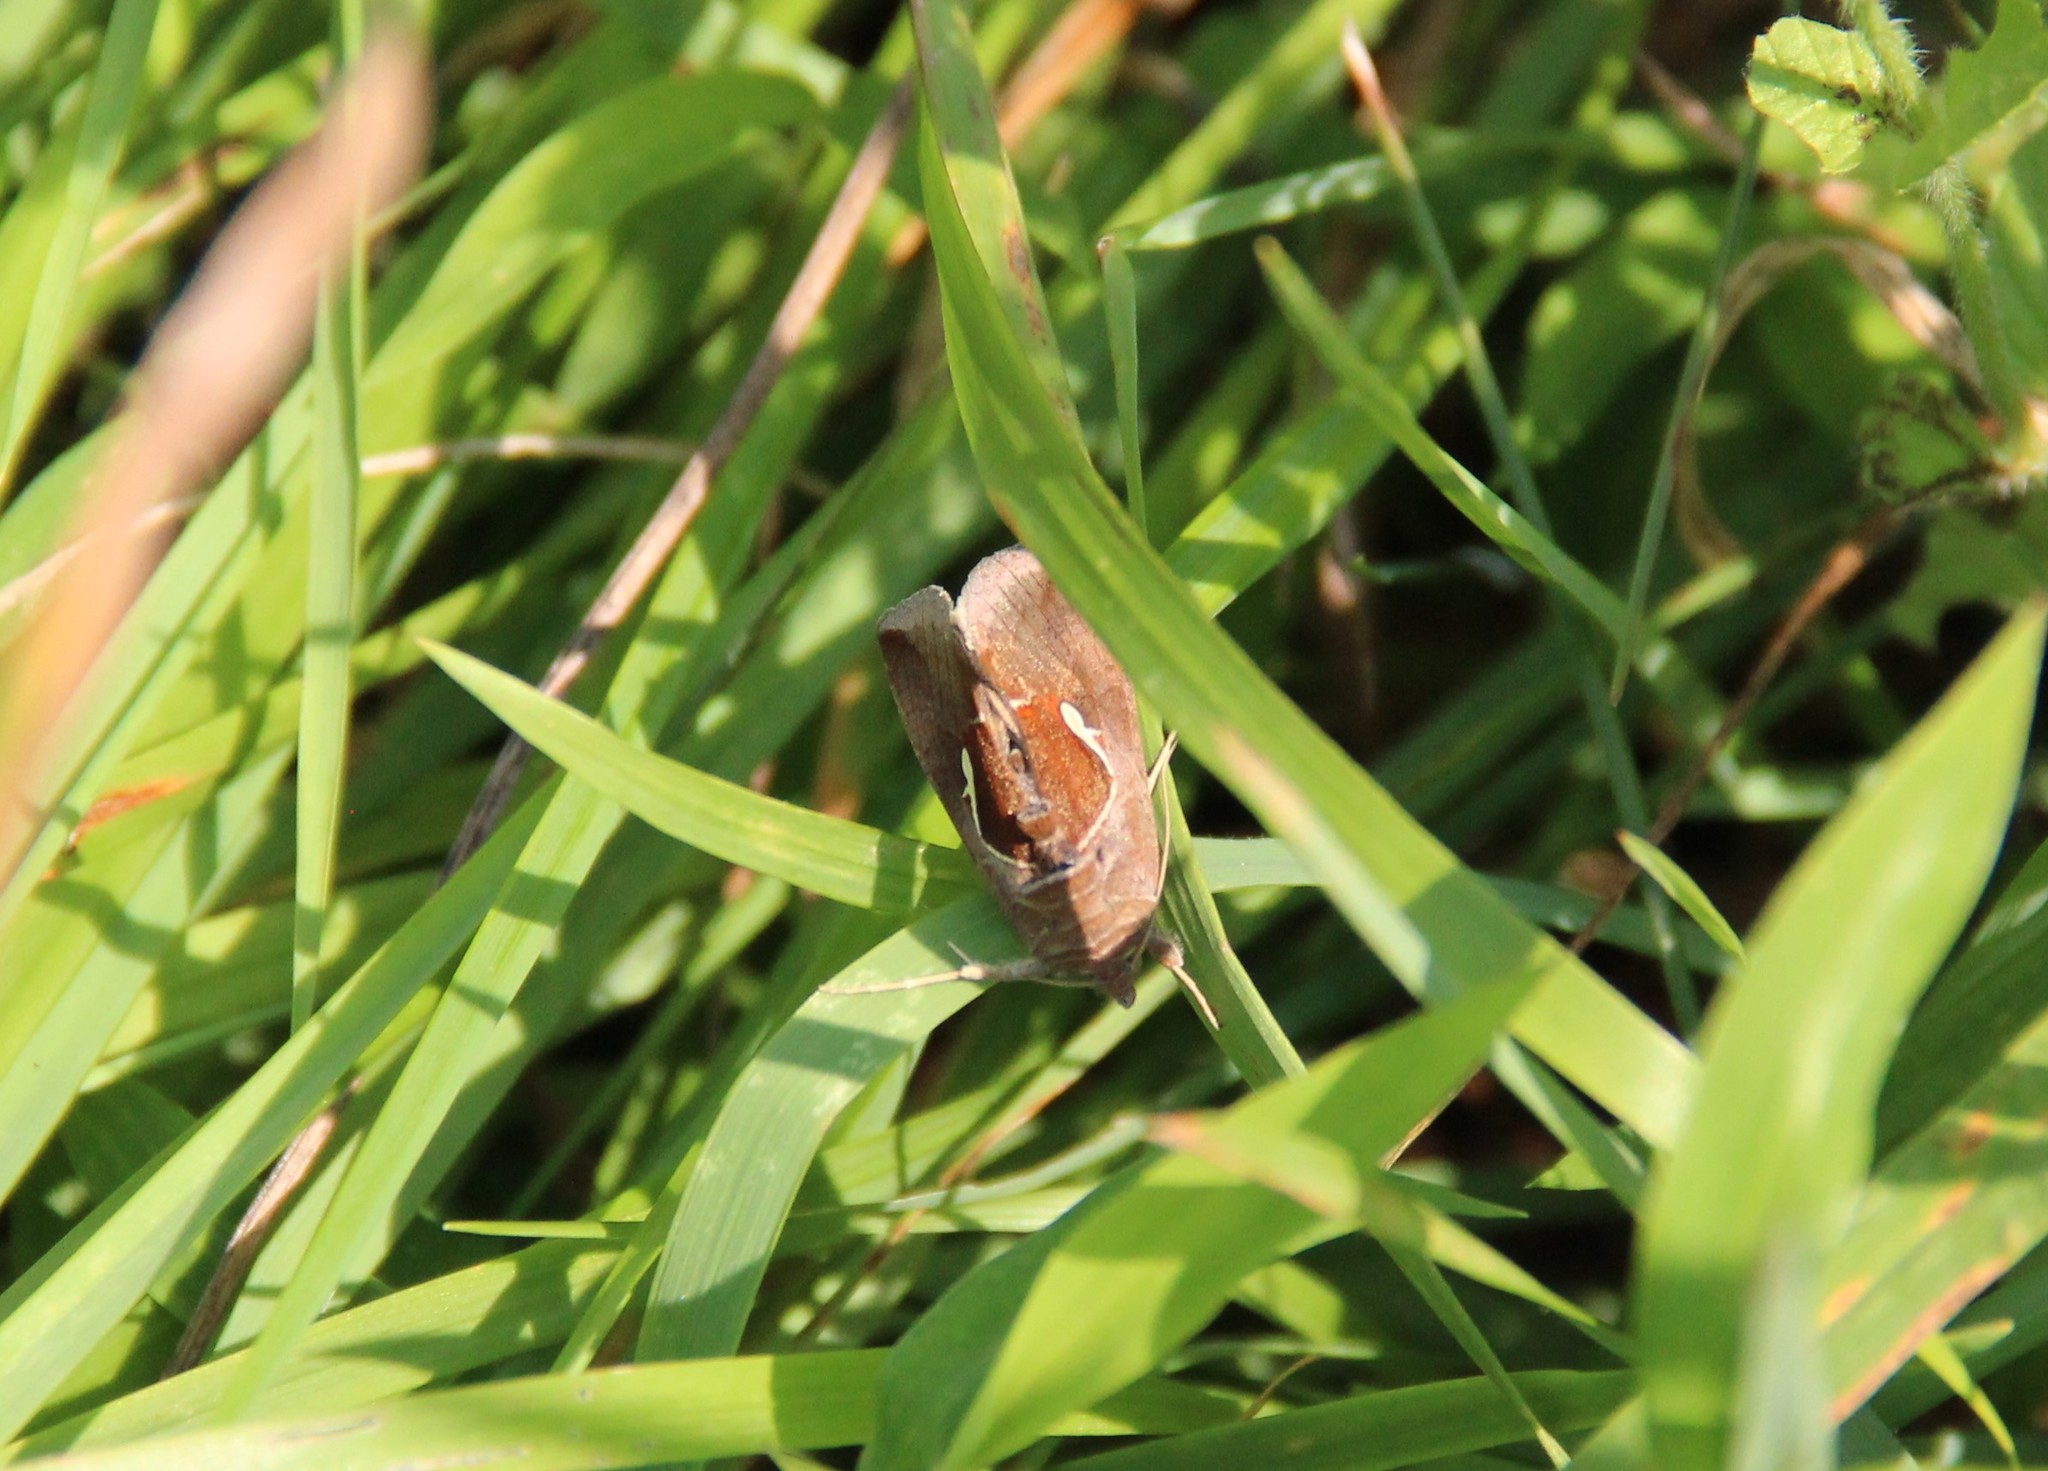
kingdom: Animalia
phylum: Arthropoda
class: Insecta
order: Lepidoptera
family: Noctuidae
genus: Anagrapha
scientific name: Anagrapha falcifera
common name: Celery looper
